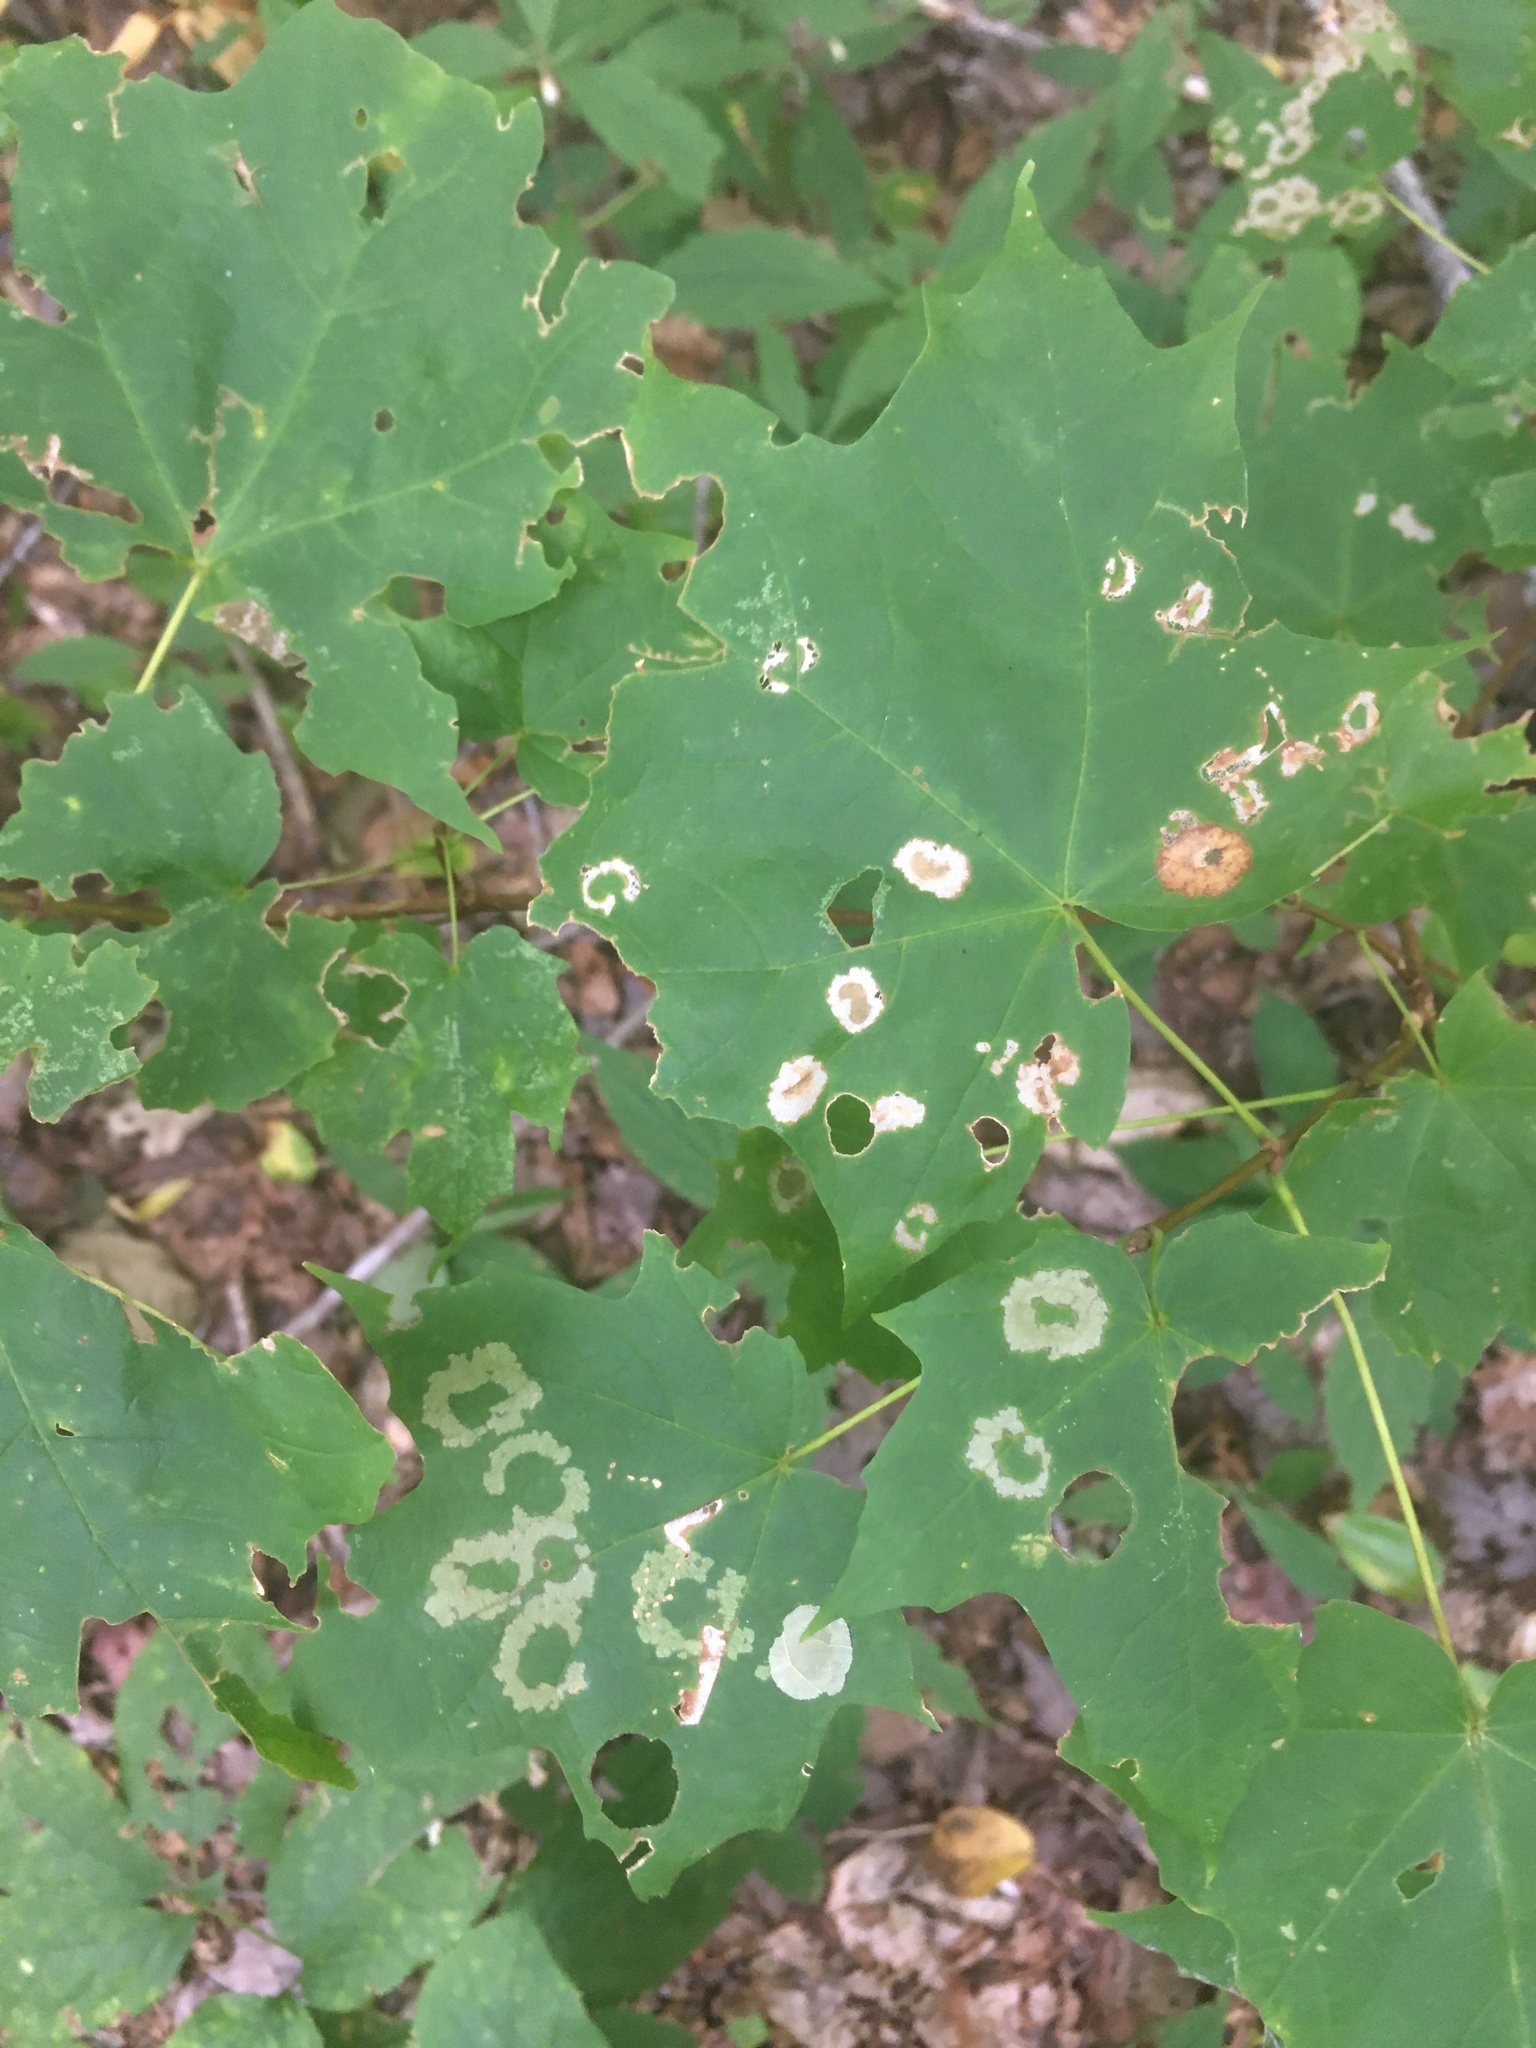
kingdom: Animalia
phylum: Arthropoda
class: Insecta
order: Lepidoptera
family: Incurvariidae
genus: Paraclemensia
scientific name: Paraclemensia acerifoliella
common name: Maple leafcutter
